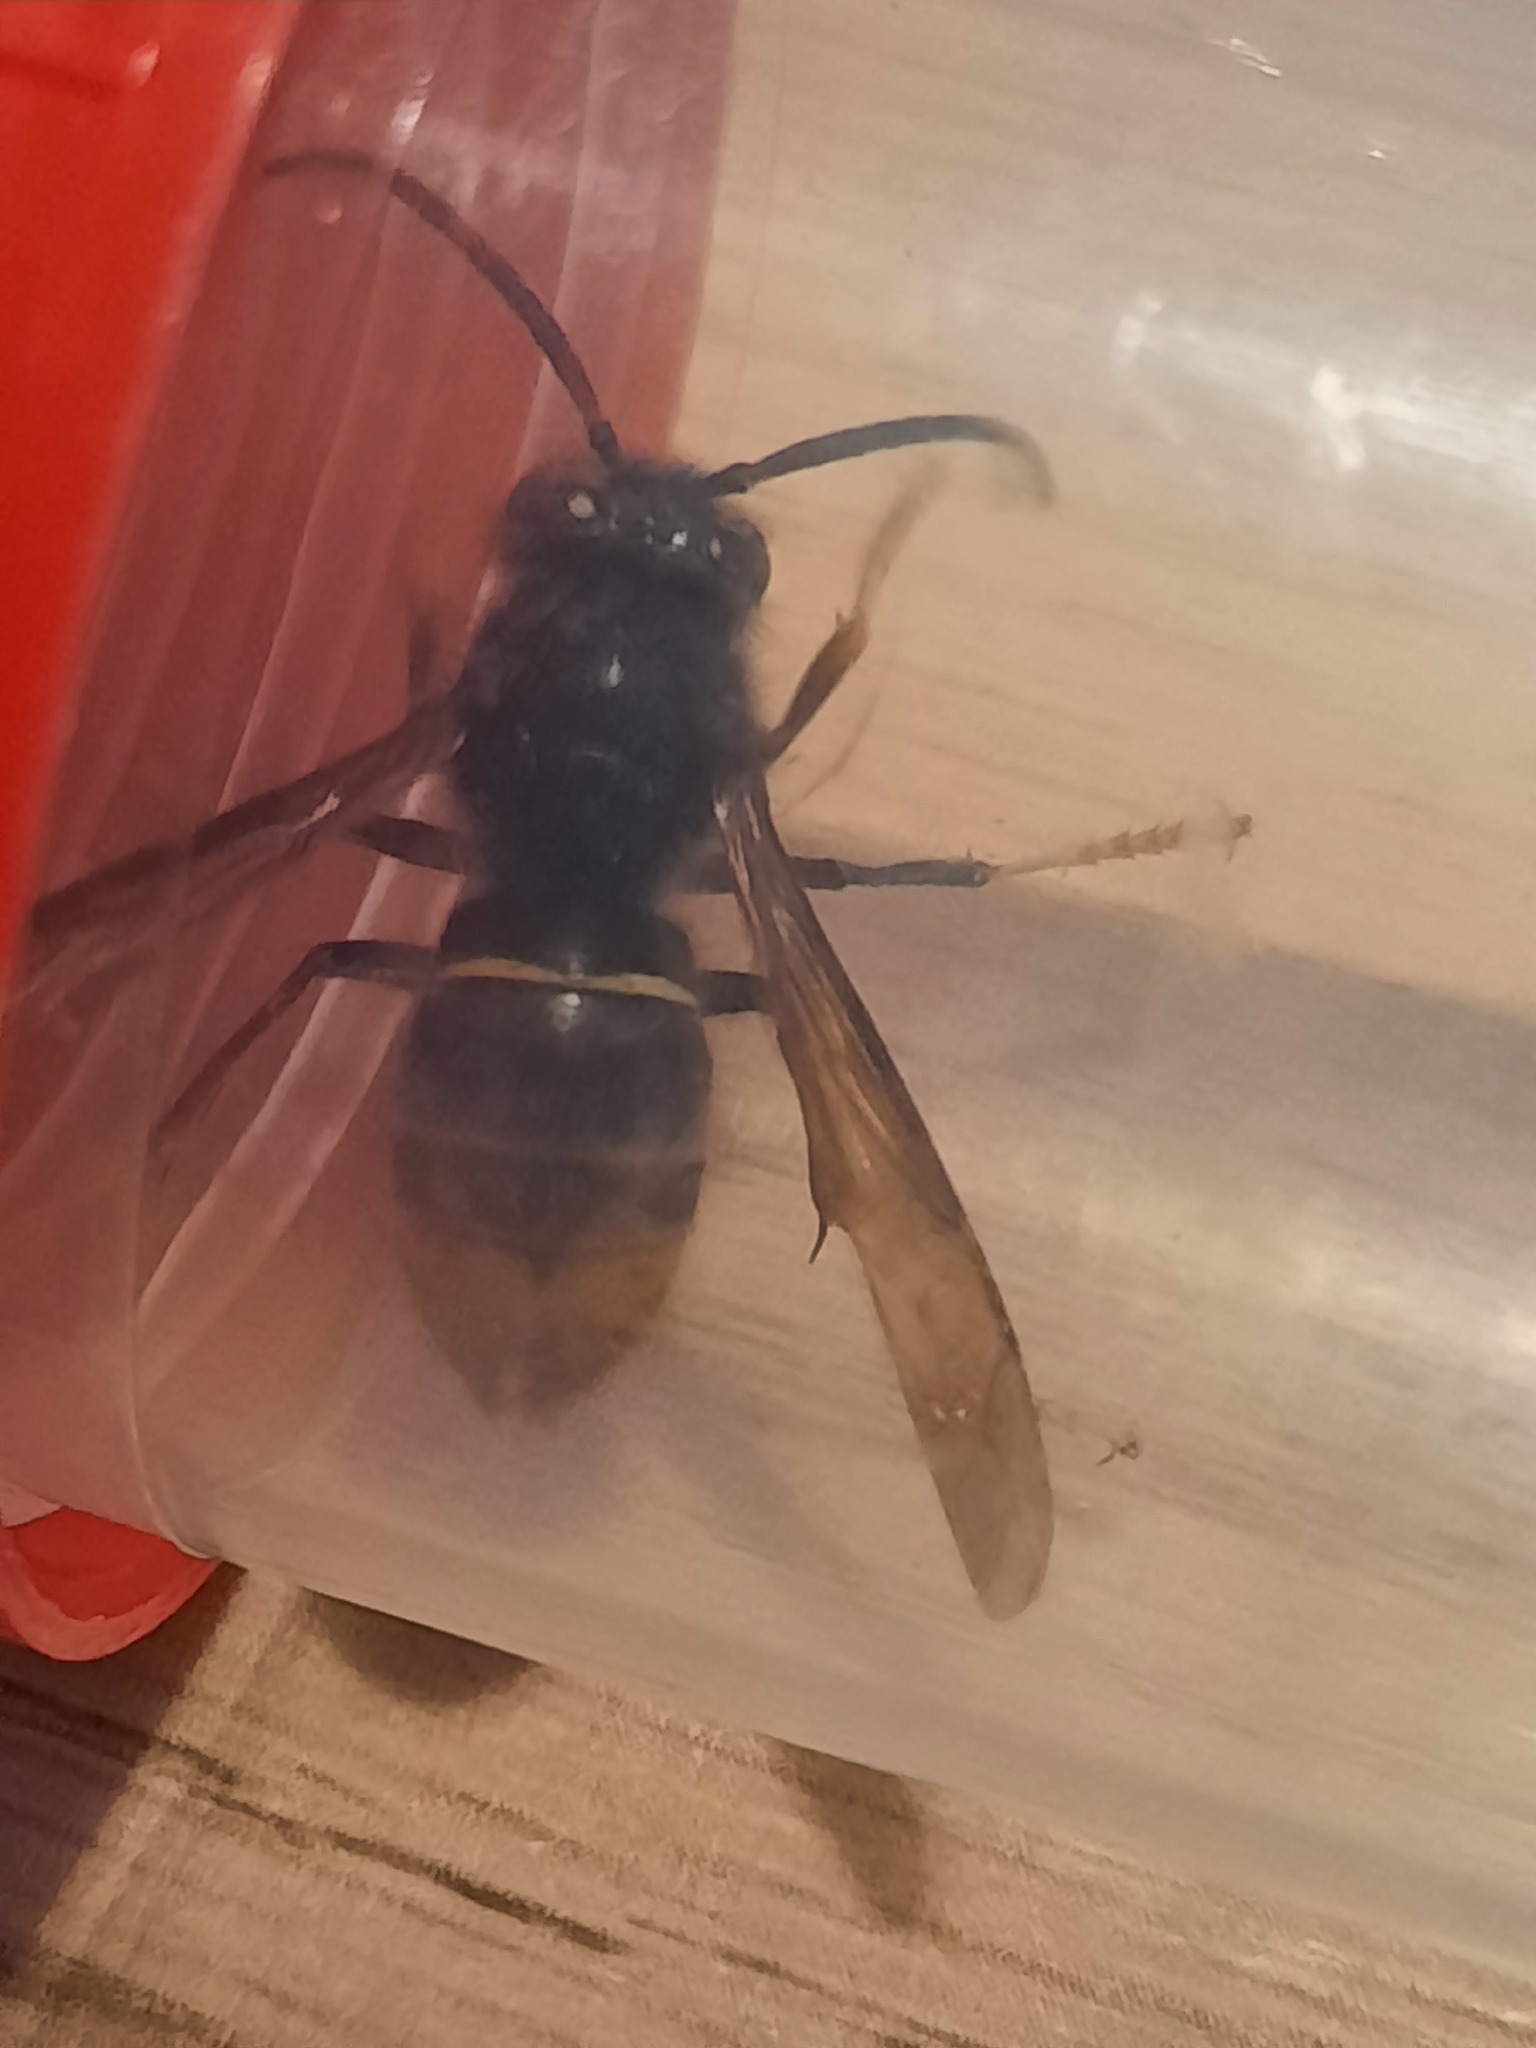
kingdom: Animalia
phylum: Arthropoda
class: Insecta
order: Hymenoptera
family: Vespidae
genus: Vespa
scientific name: Vespa velutina
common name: Asian hornet
